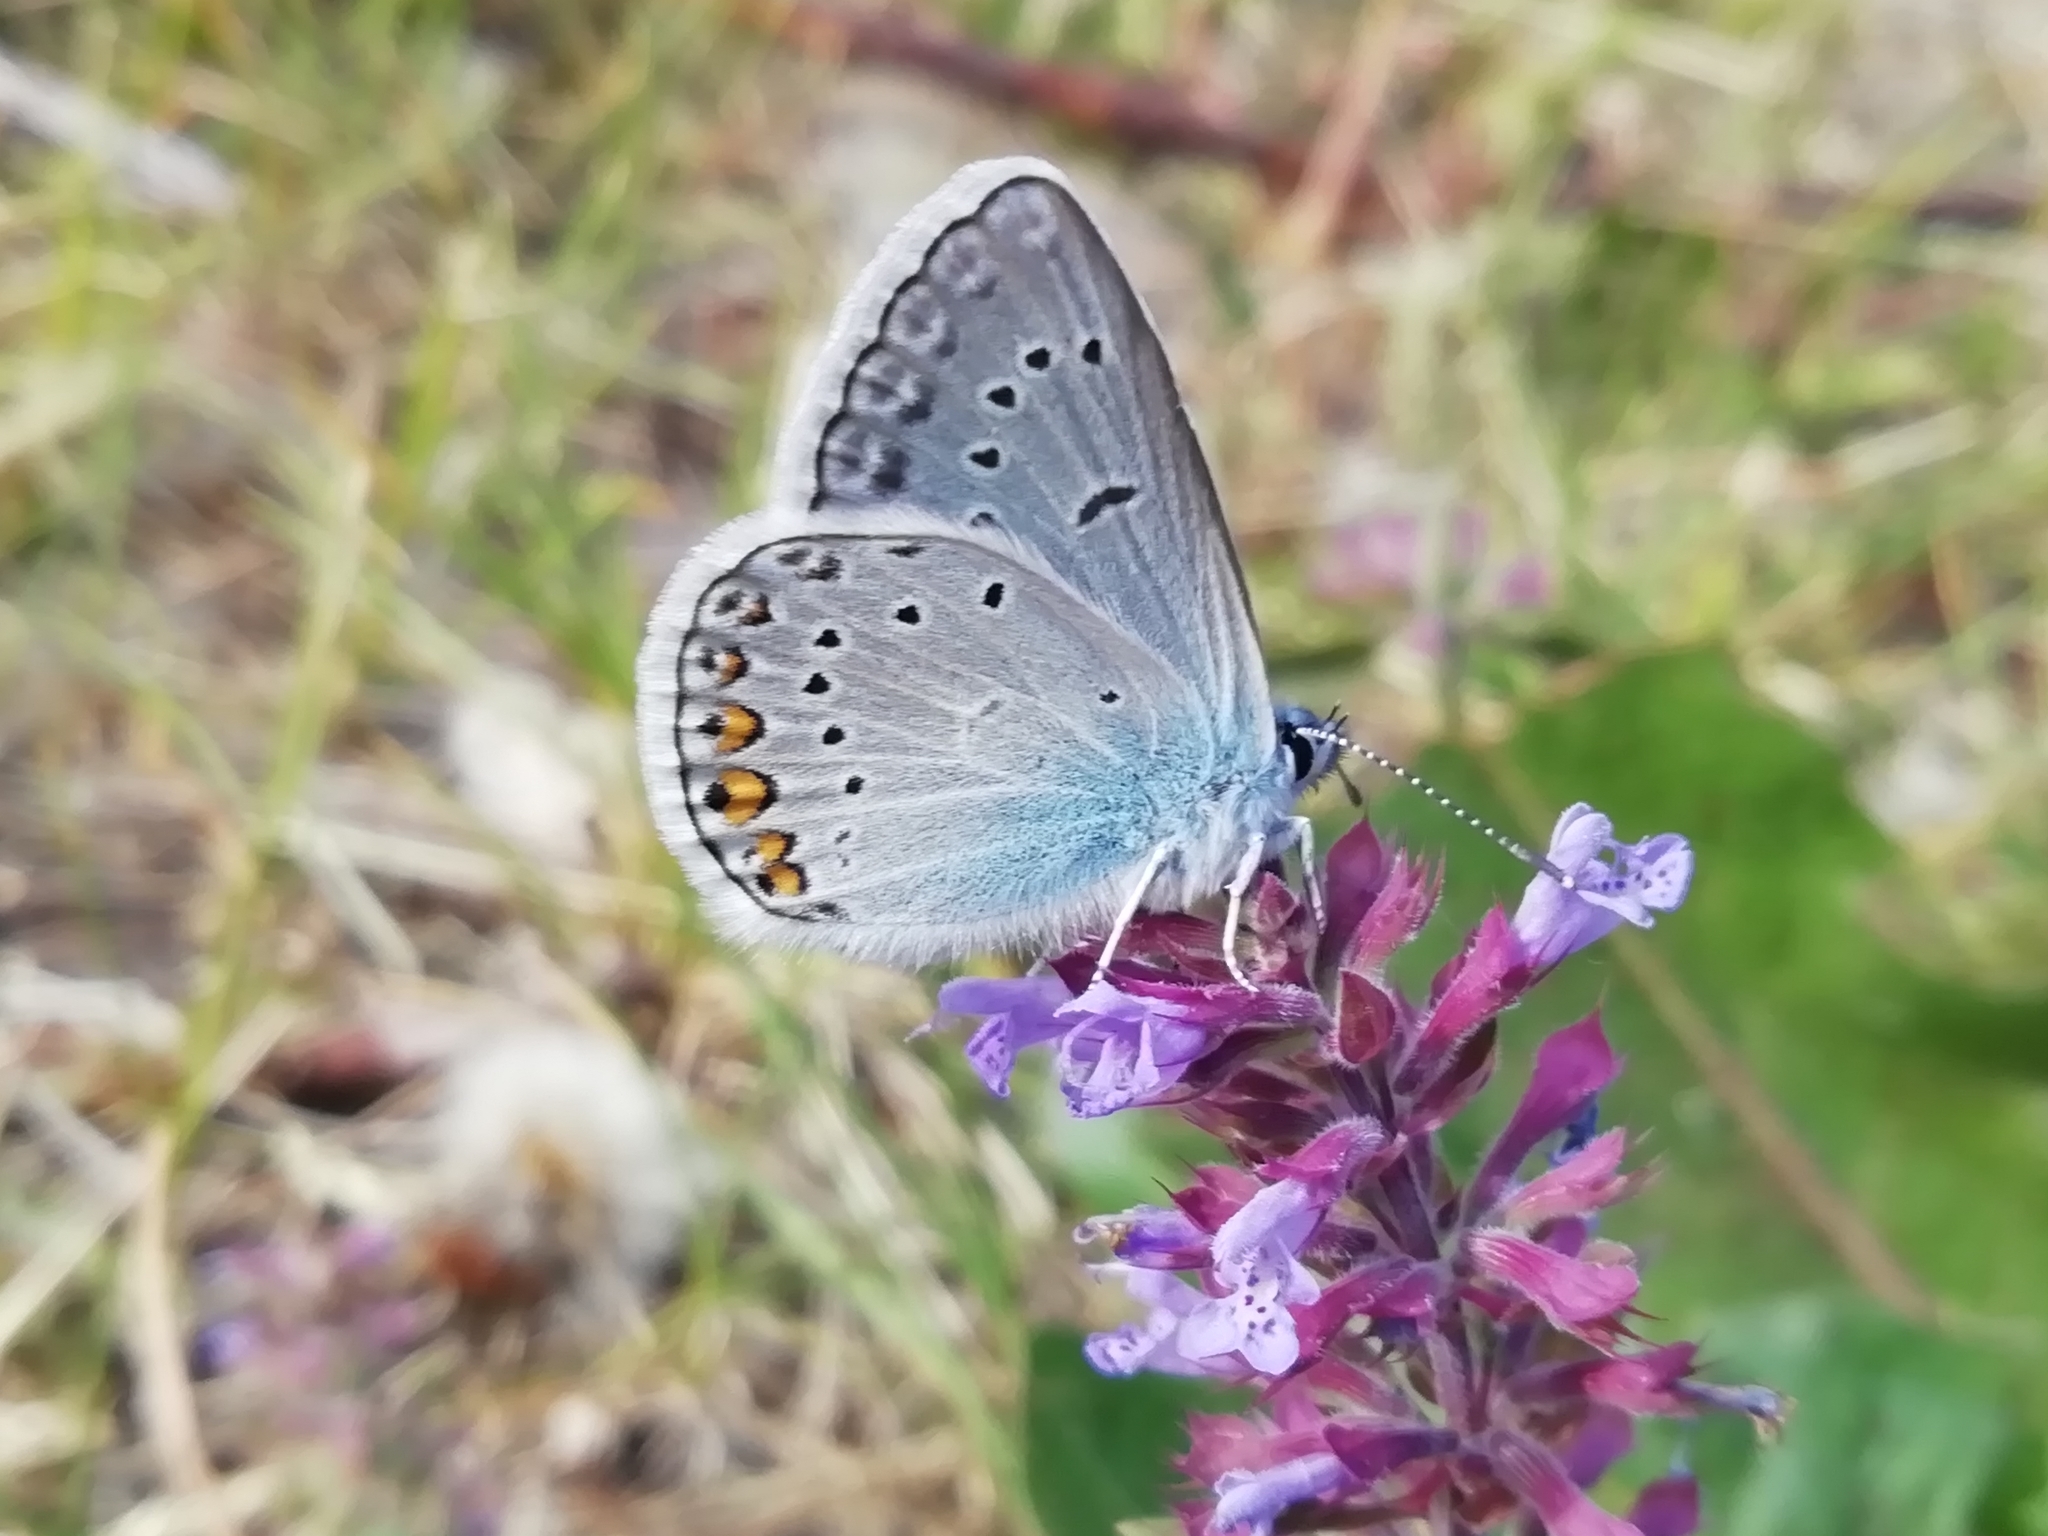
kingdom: Animalia
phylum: Arthropoda
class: Insecta
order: Lepidoptera
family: Lycaenidae
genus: Plebejus
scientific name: Plebejus amanda
